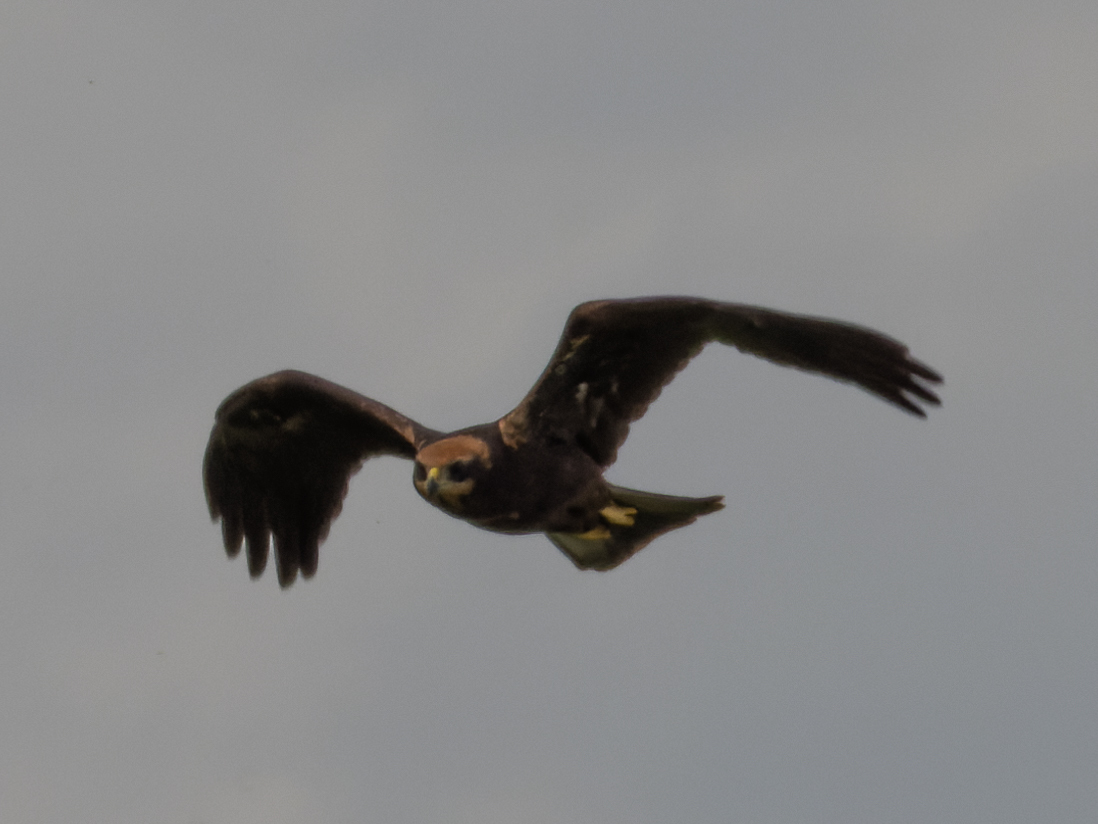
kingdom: Animalia
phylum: Chordata
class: Aves
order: Accipitriformes
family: Accipitridae
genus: Circus
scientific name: Circus aeruginosus
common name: Western marsh harrier
